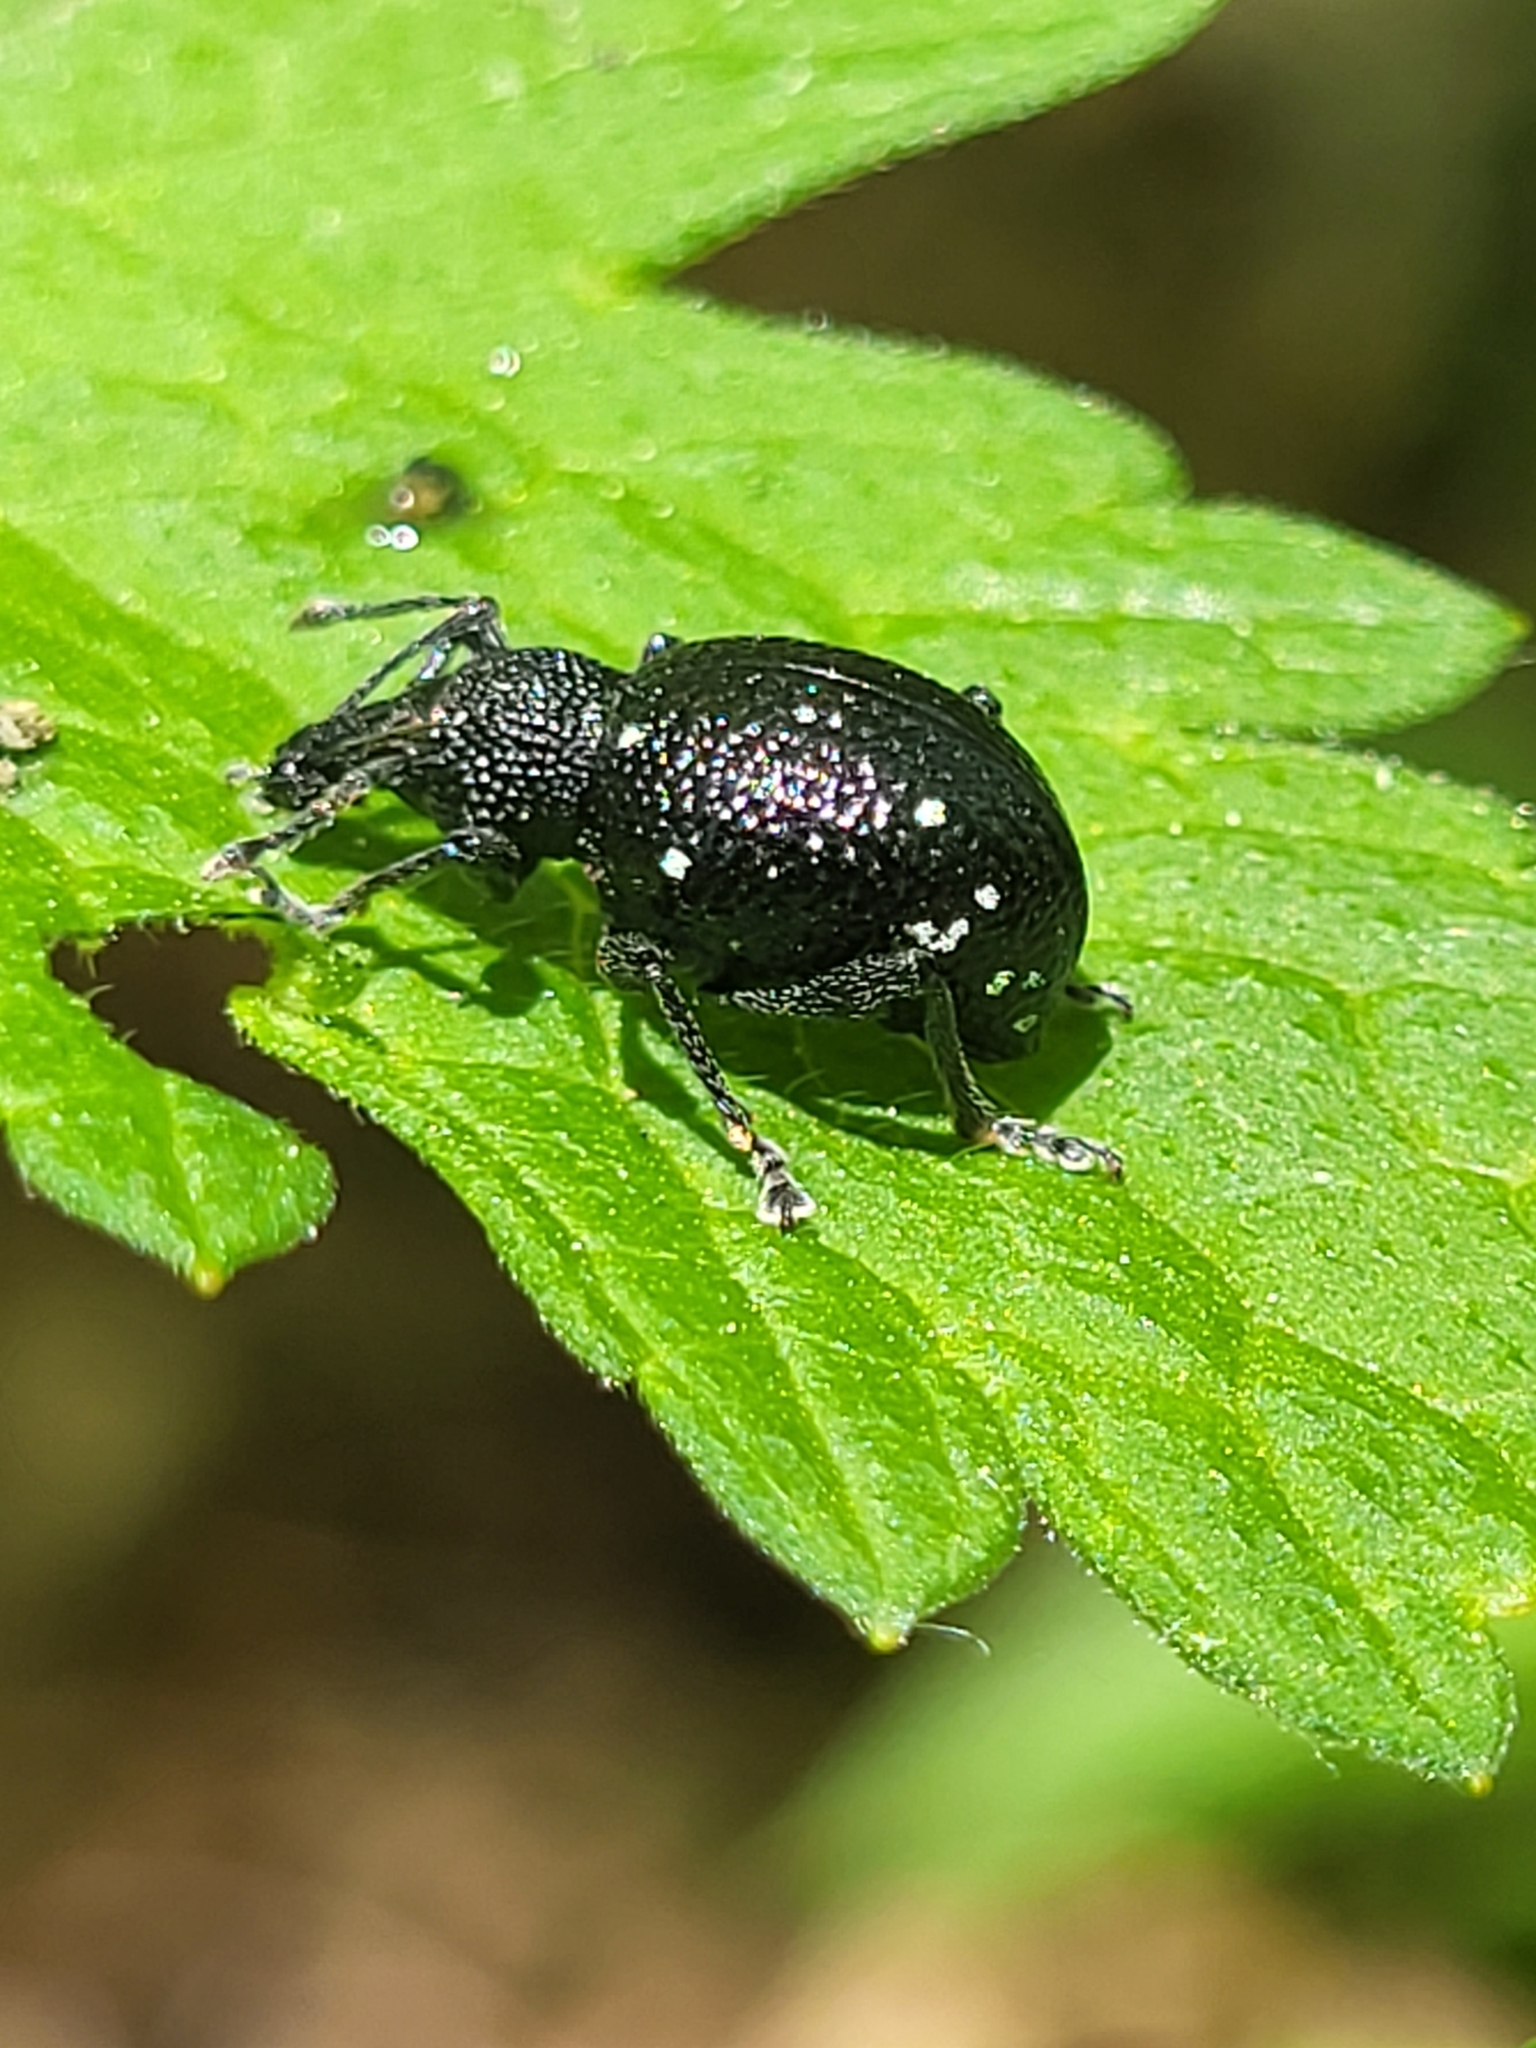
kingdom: Animalia
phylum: Arthropoda
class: Insecta
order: Coleoptera
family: Curculionidae
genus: Otiorhynchus
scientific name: Otiorhynchus gemmatus
